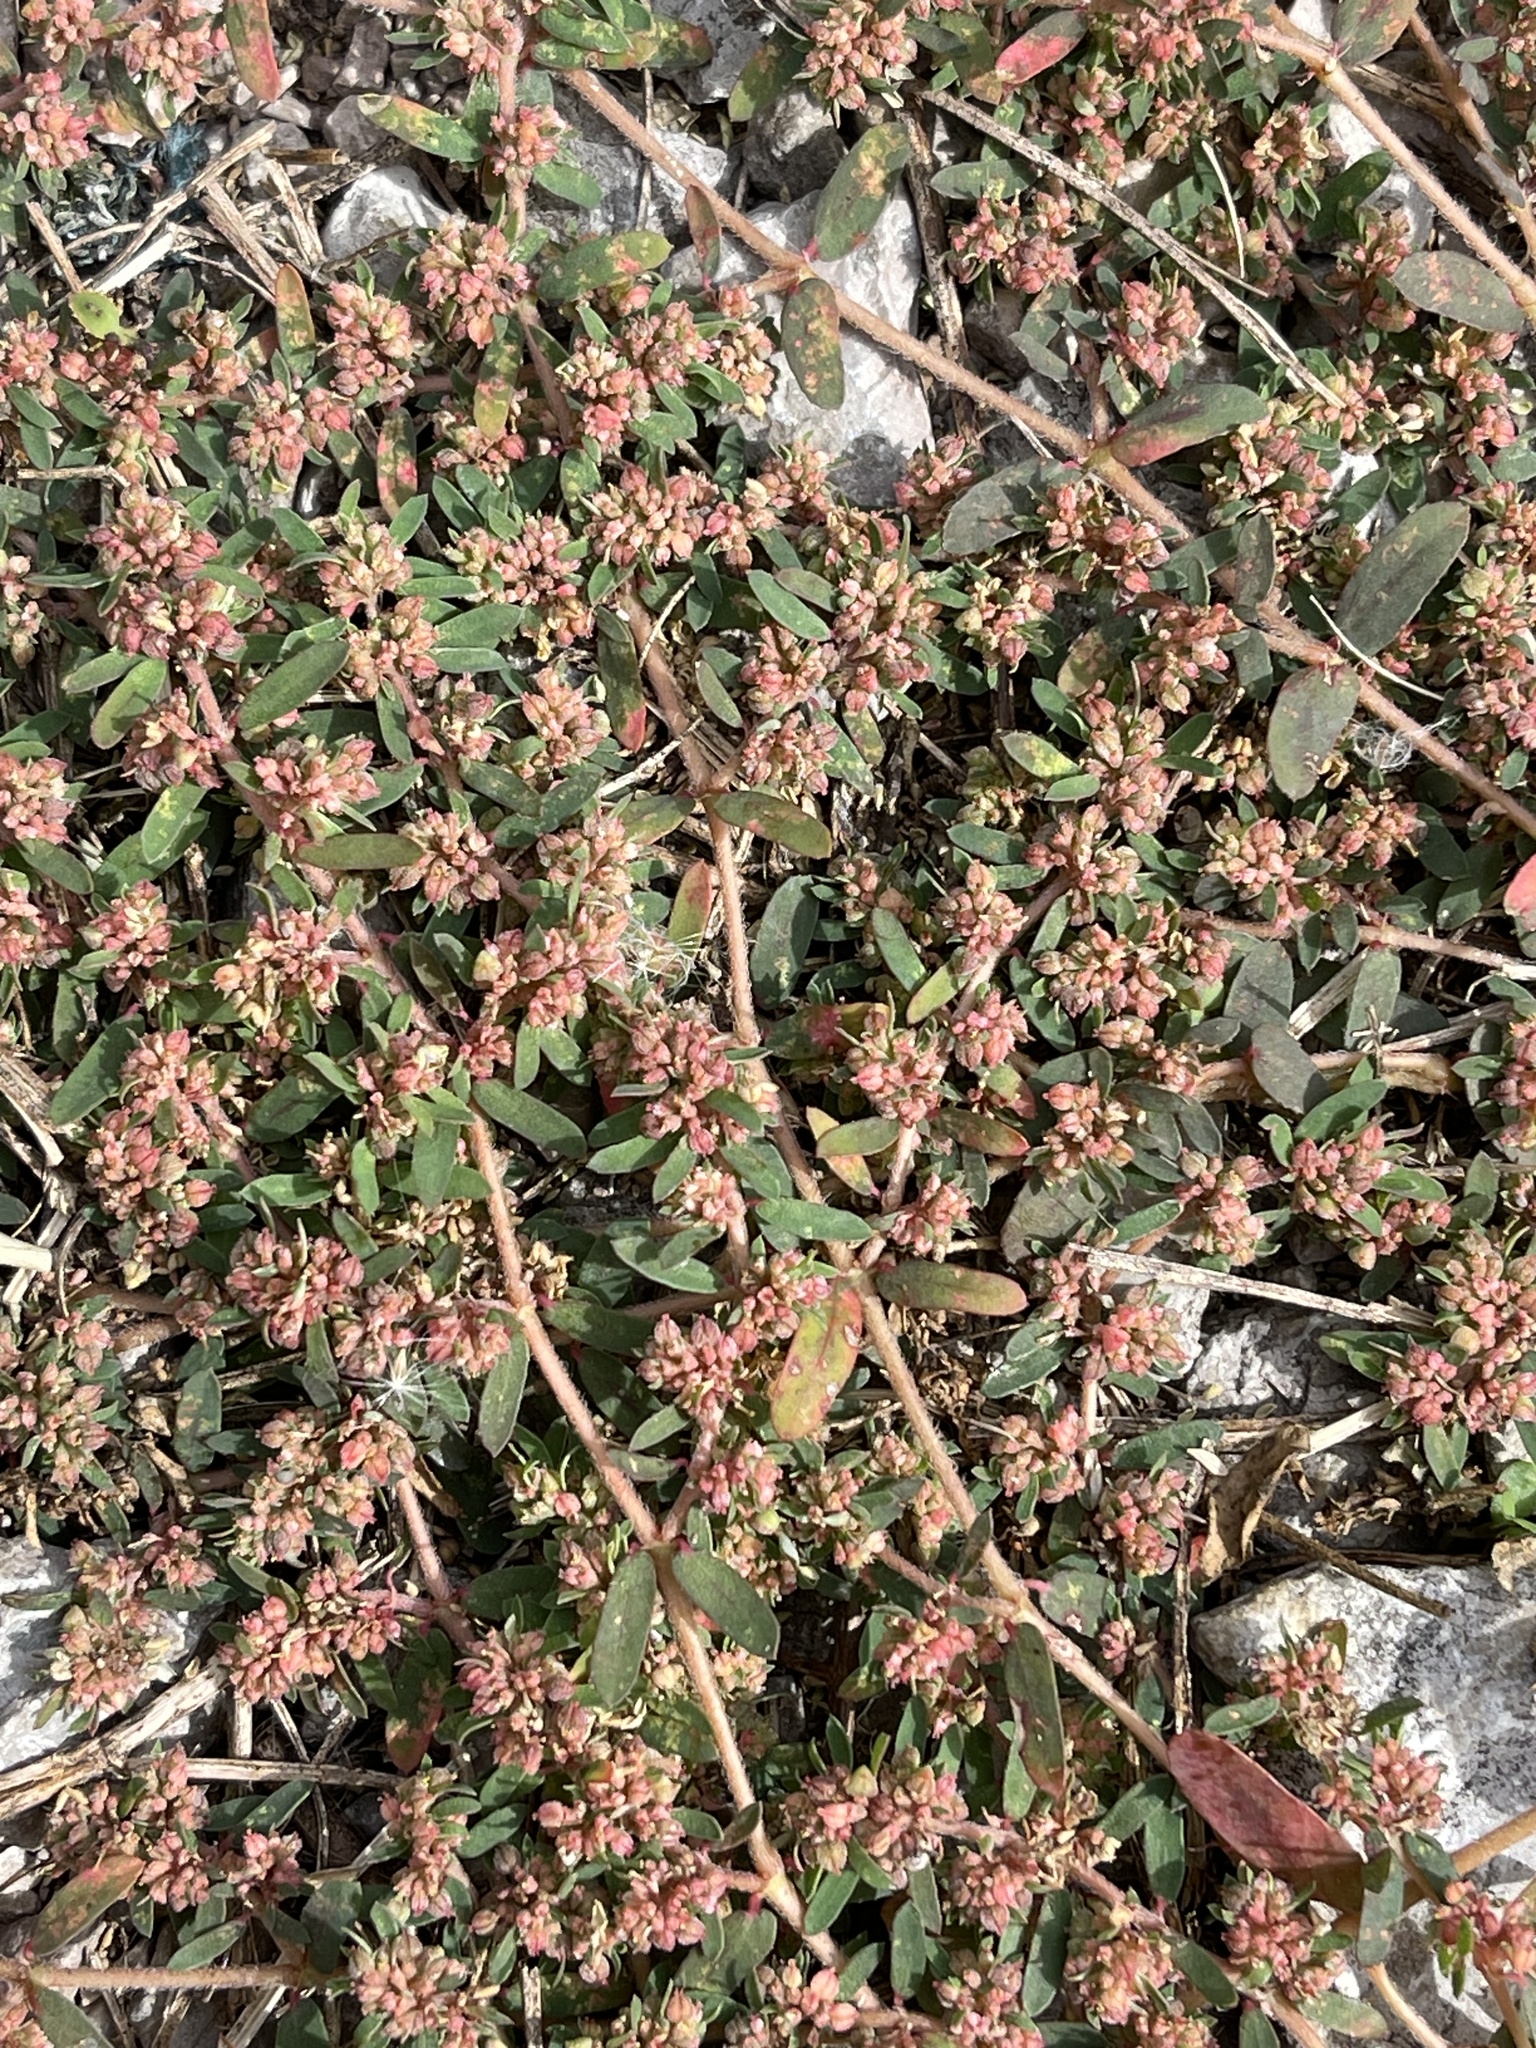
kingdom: Plantae
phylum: Tracheophyta
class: Magnoliopsida
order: Malpighiales
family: Euphorbiaceae
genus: Euphorbia
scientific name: Euphorbia maculata
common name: Spotted spurge
